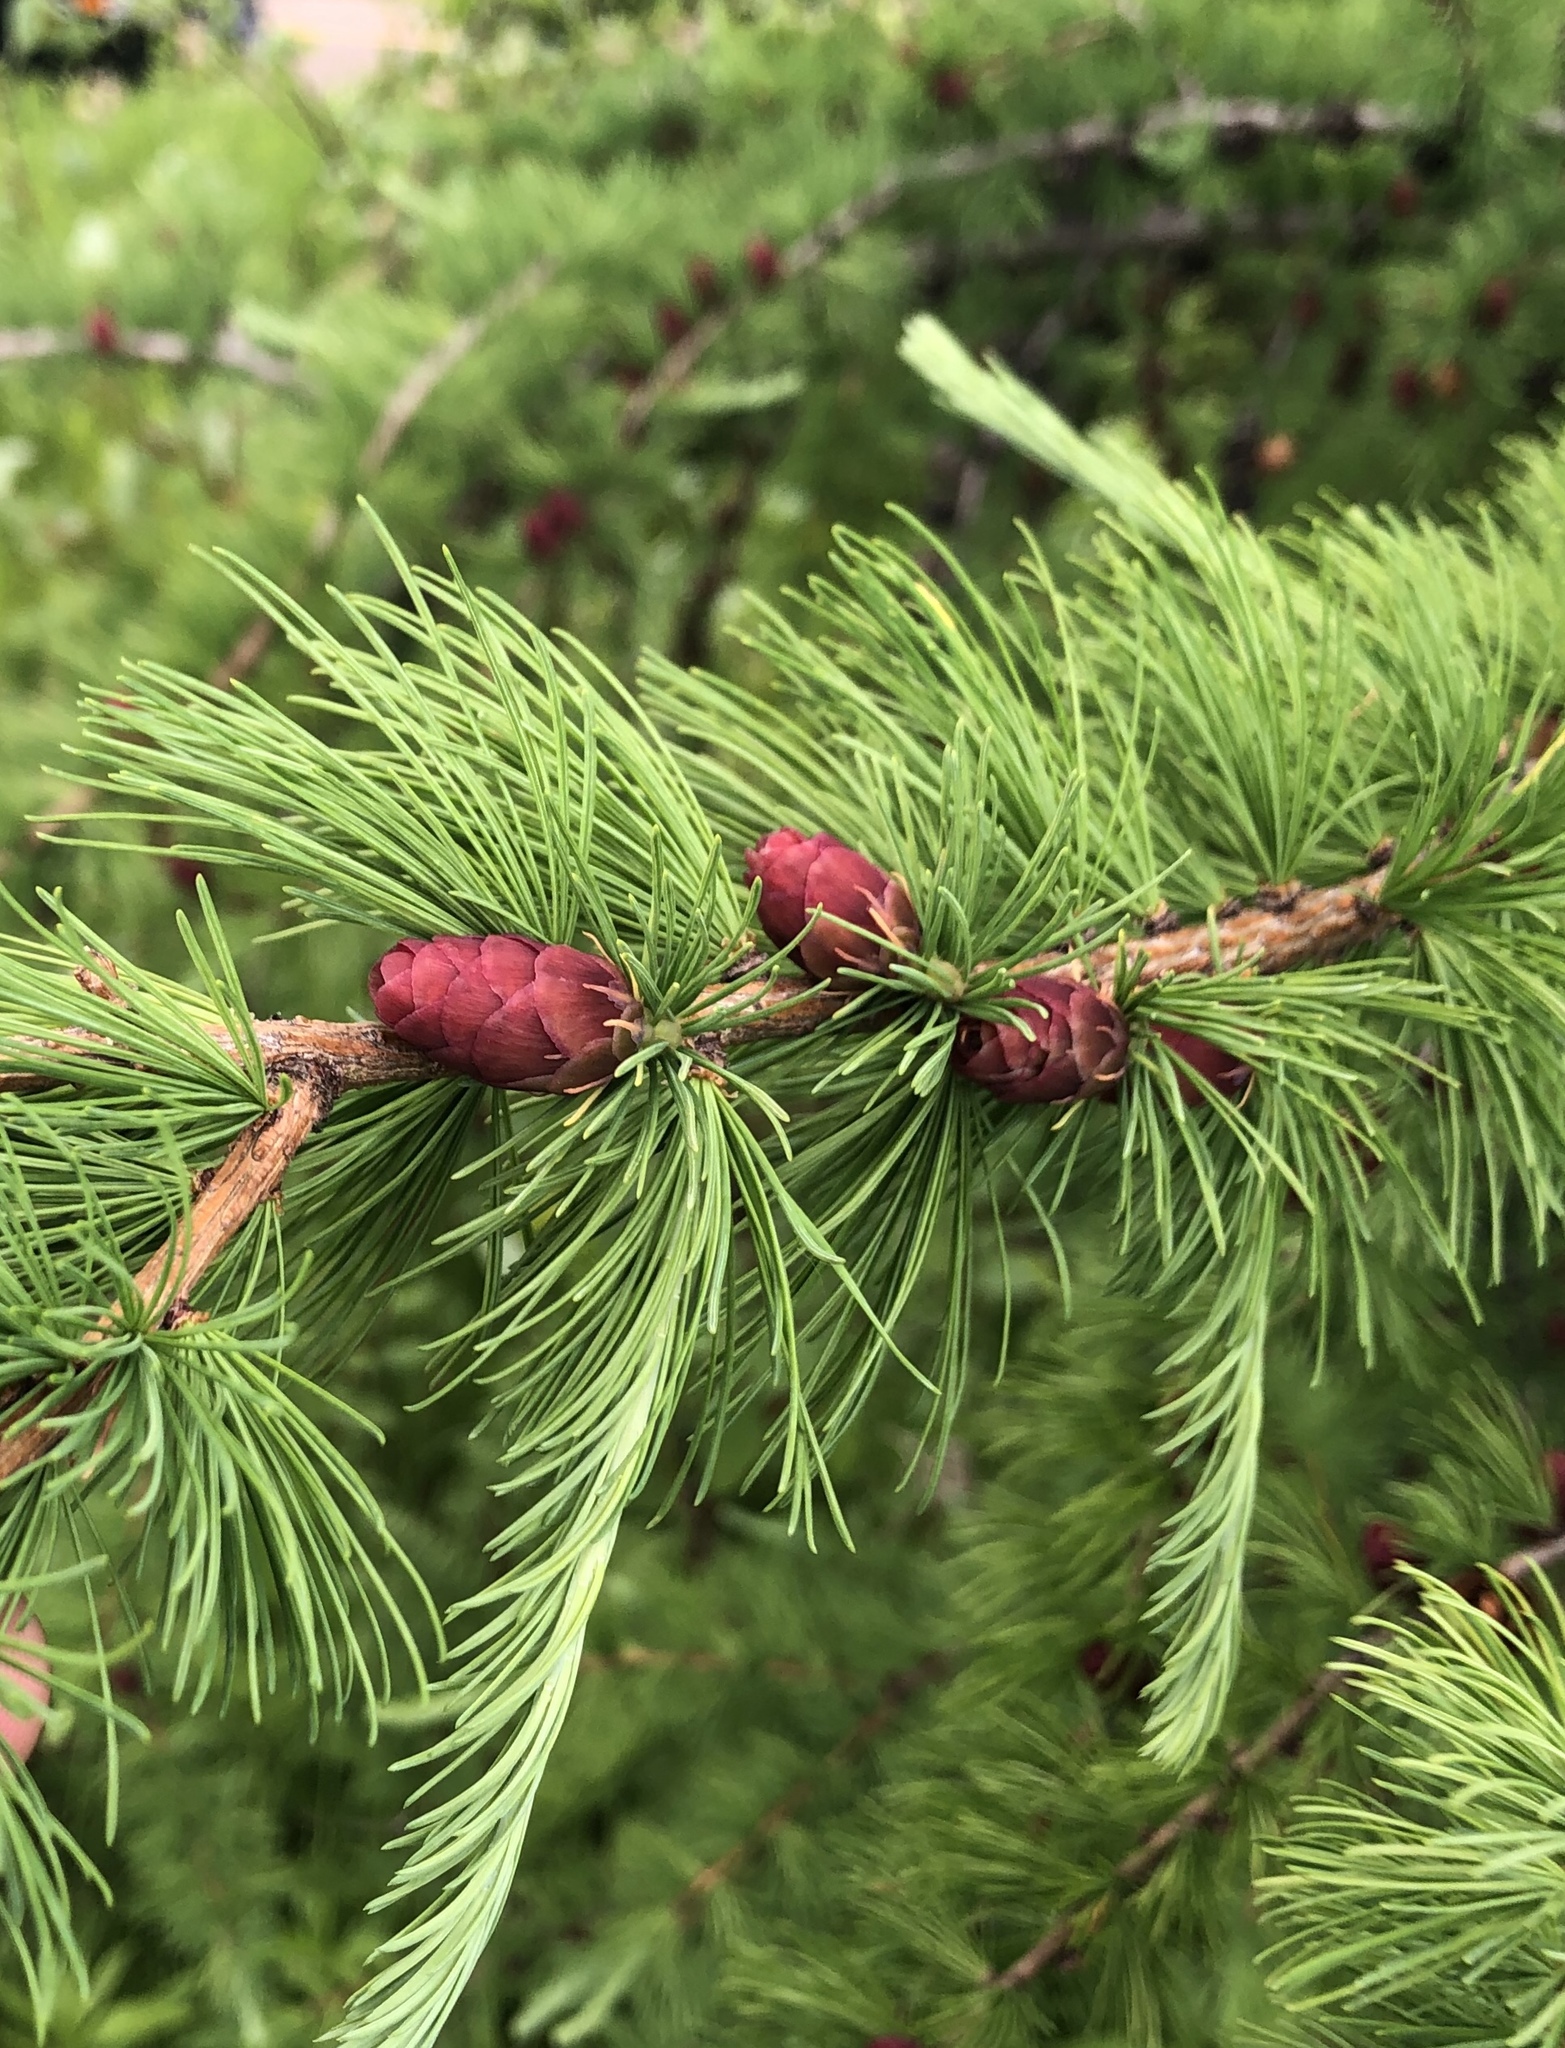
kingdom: Plantae
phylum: Tracheophyta
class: Pinopsida
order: Pinales
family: Pinaceae
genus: Larix
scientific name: Larix laricina
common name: American larch
